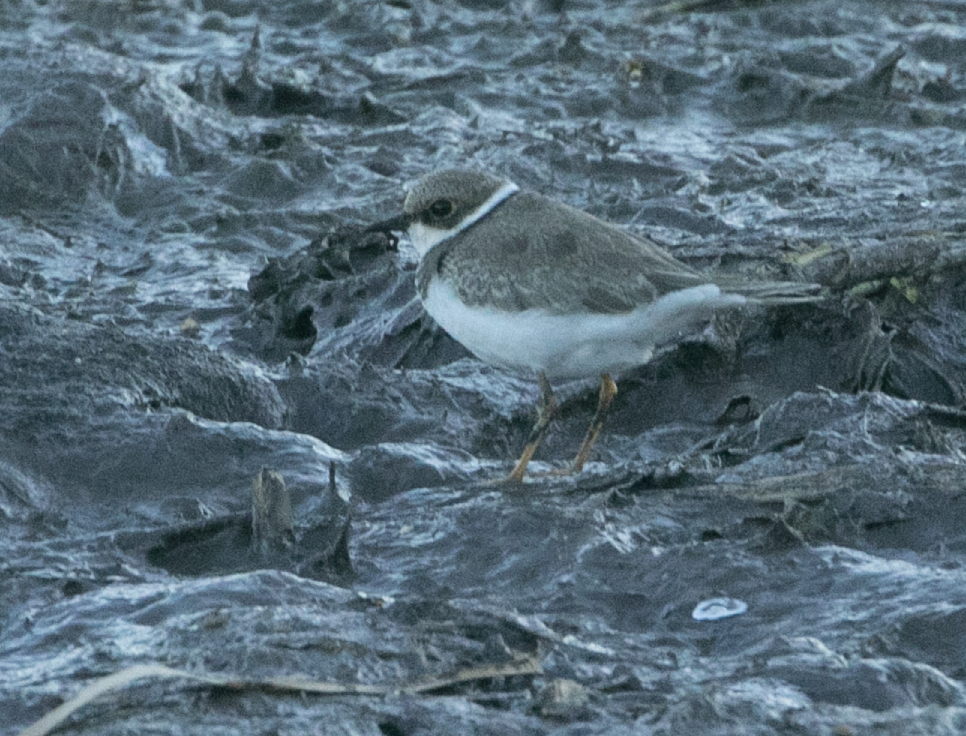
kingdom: Animalia
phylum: Chordata
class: Aves
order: Charadriiformes
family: Charadriidae
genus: Charadrius
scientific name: Charadrius dubius
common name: Little ringed plover
